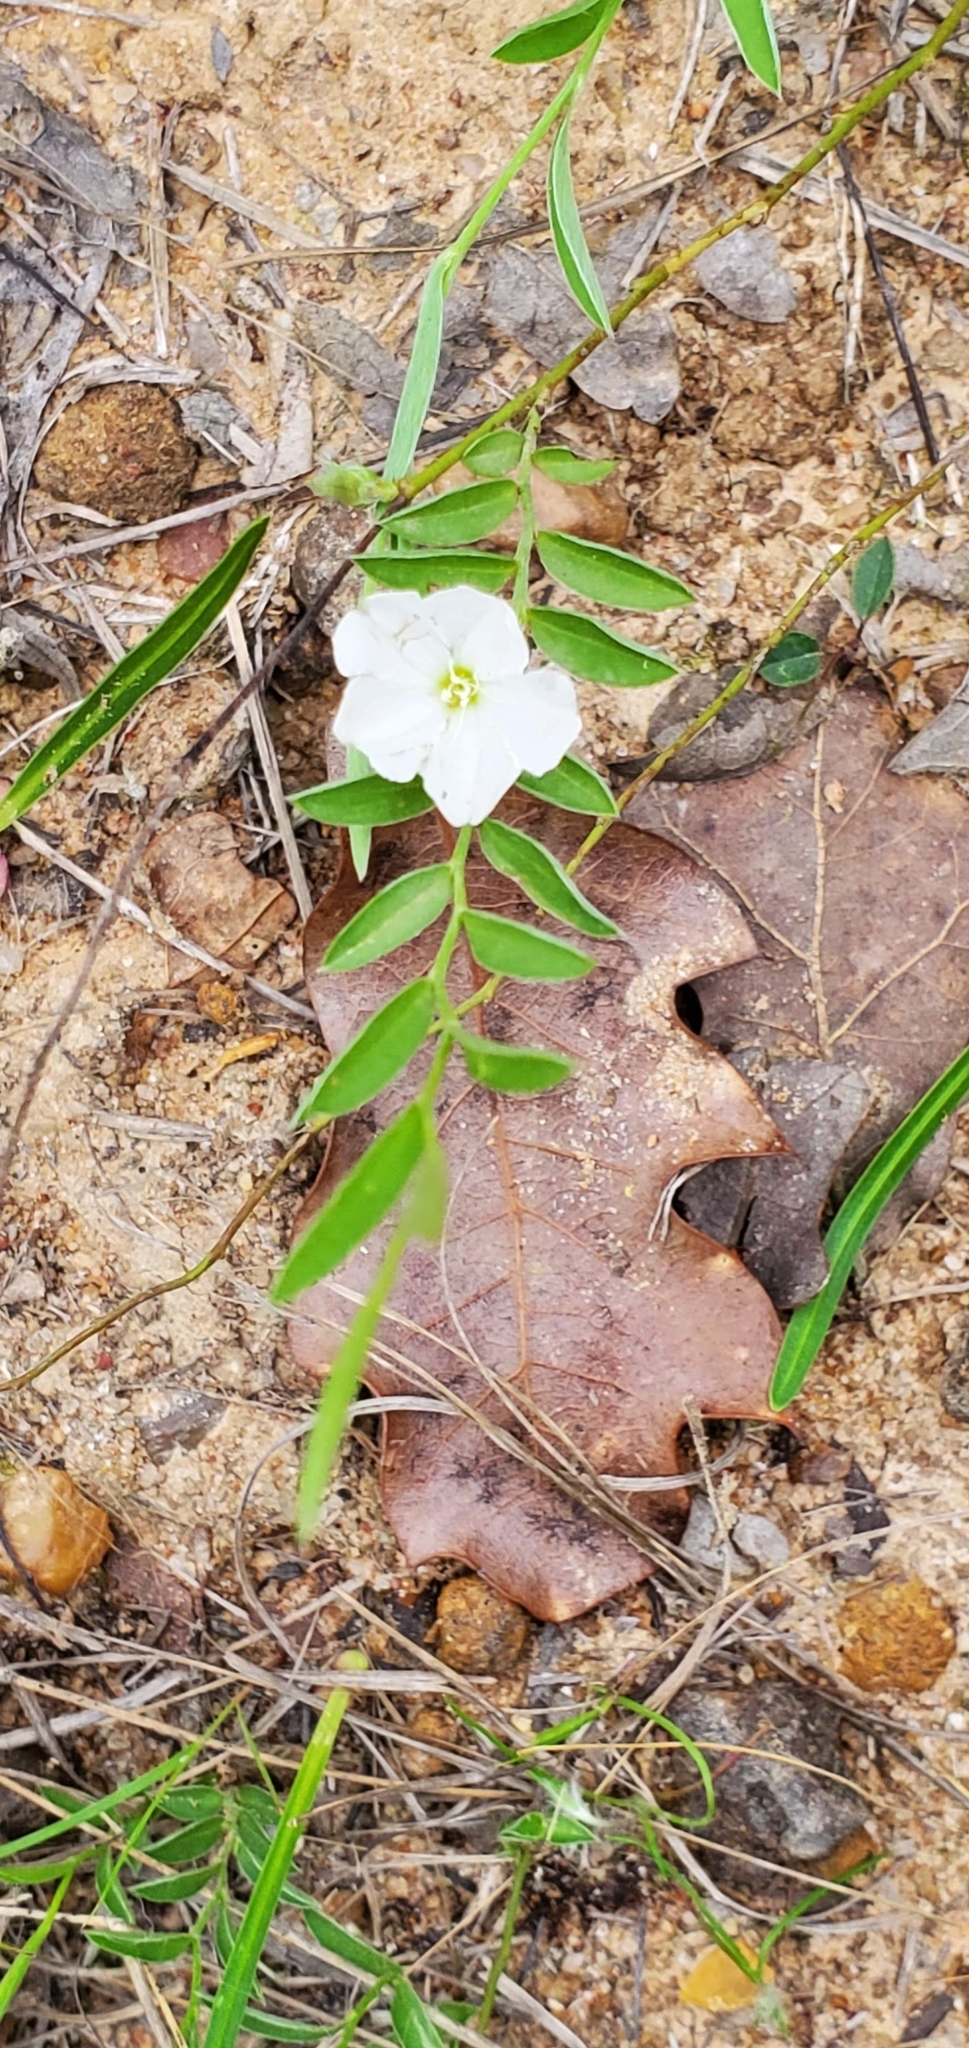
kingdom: Plantae
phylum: Tracheophyta
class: Magnoliopsida
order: Solanales
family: Convolvulaceae
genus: Evolvulus
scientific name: Evolvulus sericeus
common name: Blue dots
